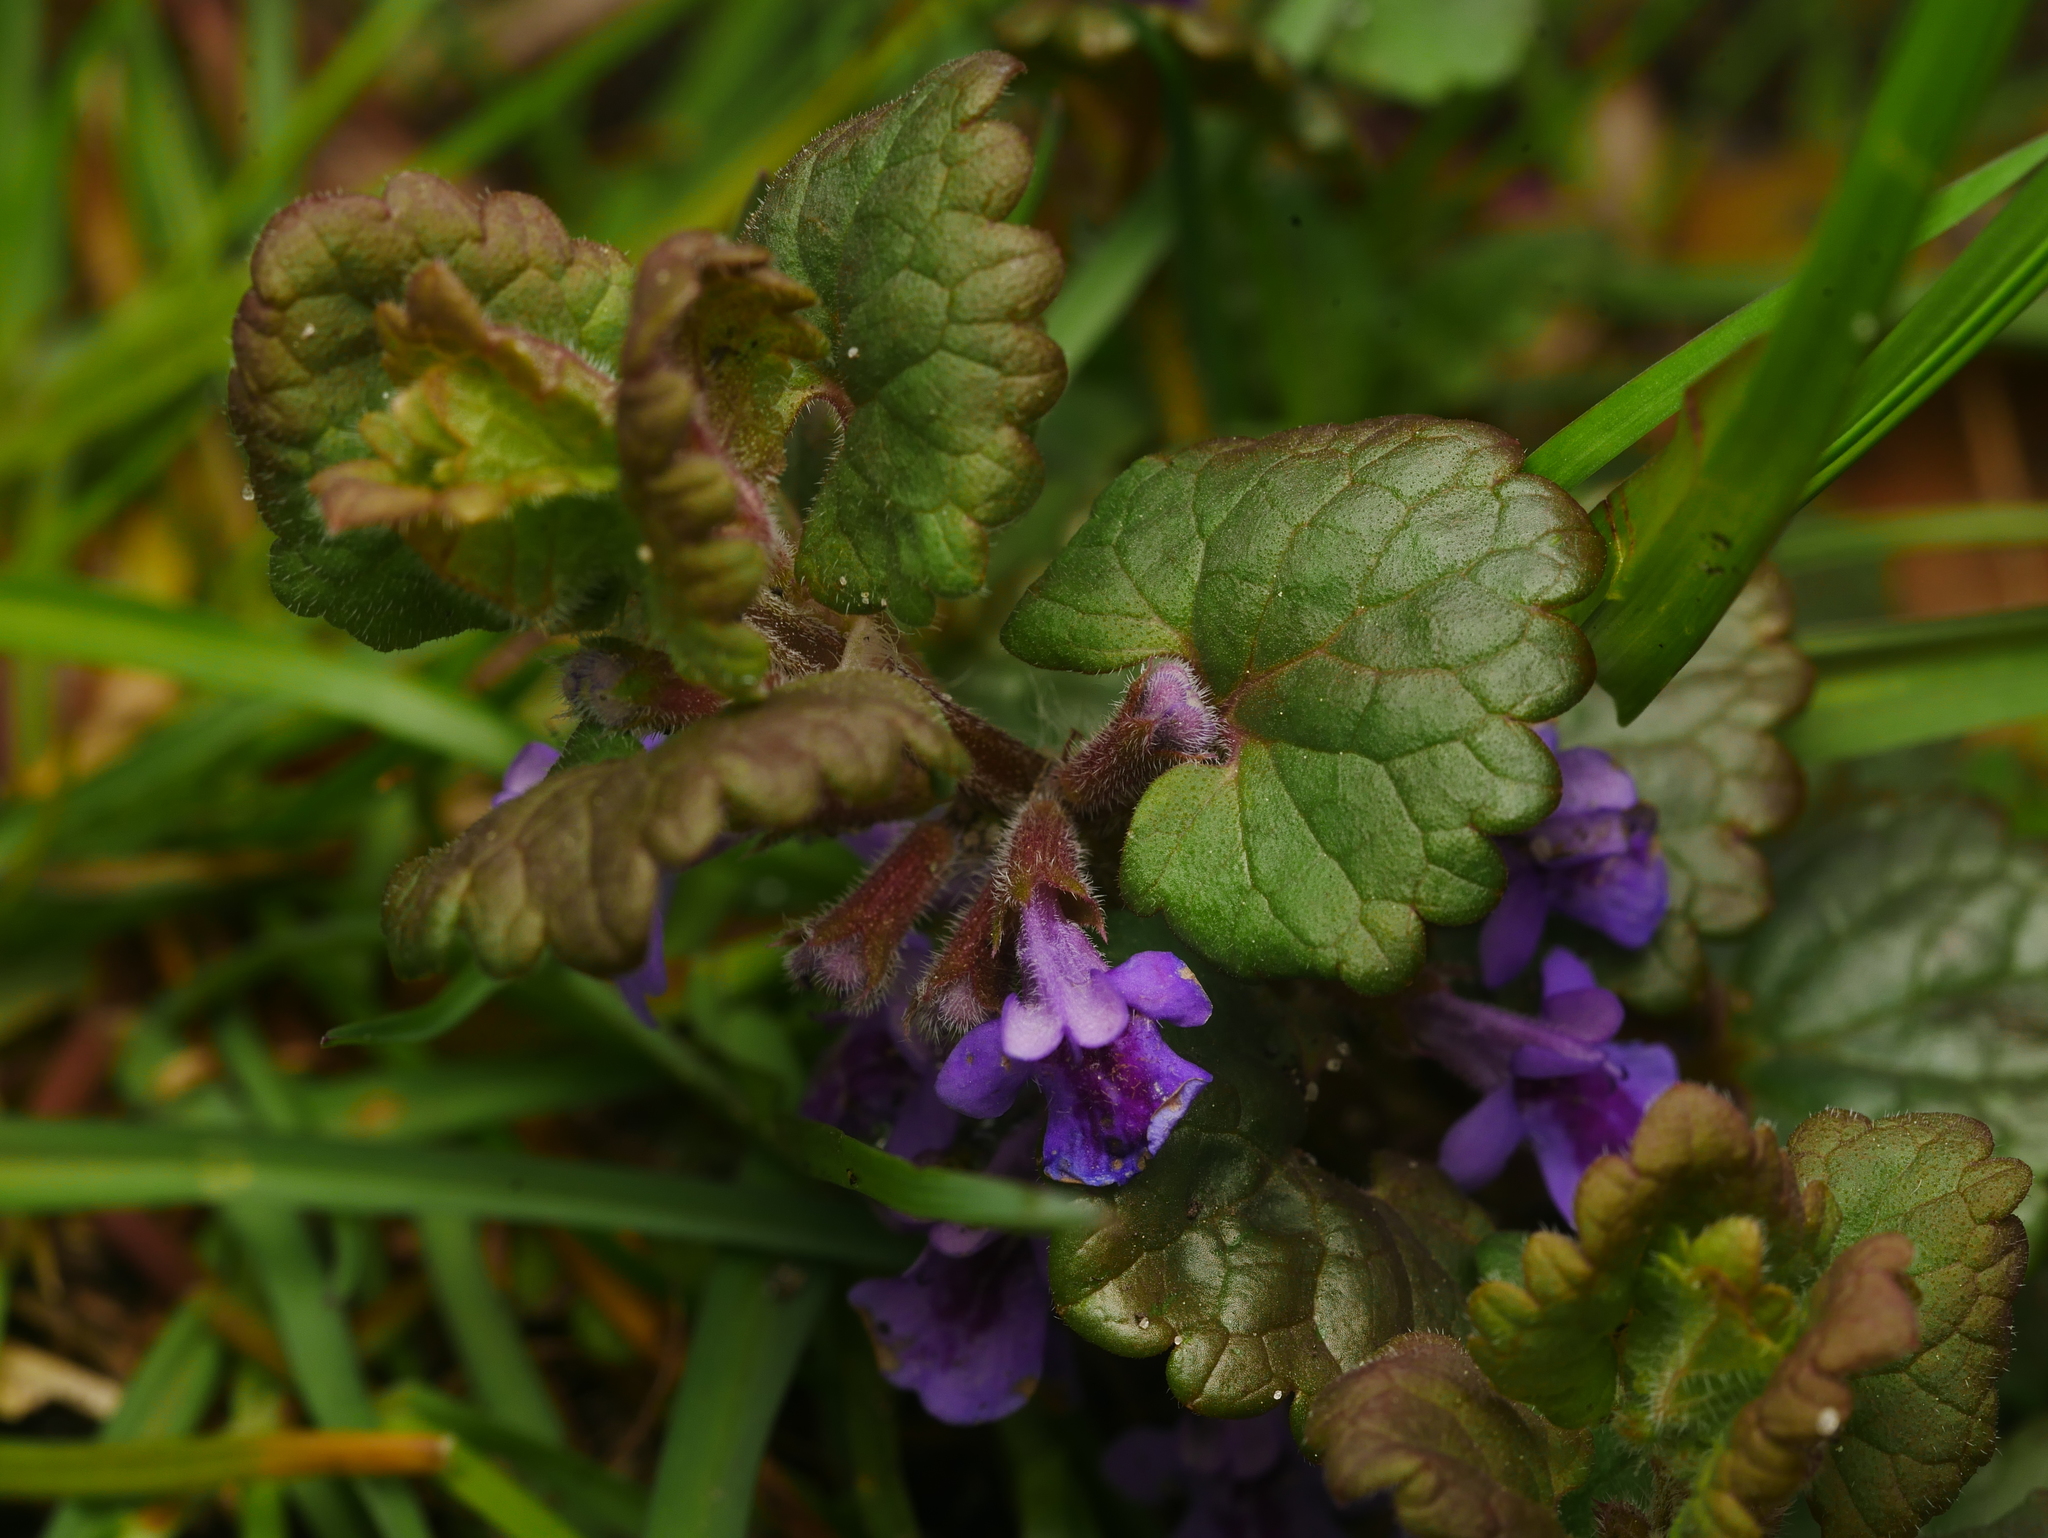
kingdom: Plantae
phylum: Tracheophyta
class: Magnoliopsida
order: Lamiales
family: Lamiaceae
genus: Glechoma
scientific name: Glechoma hederacea
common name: Ground ivy
